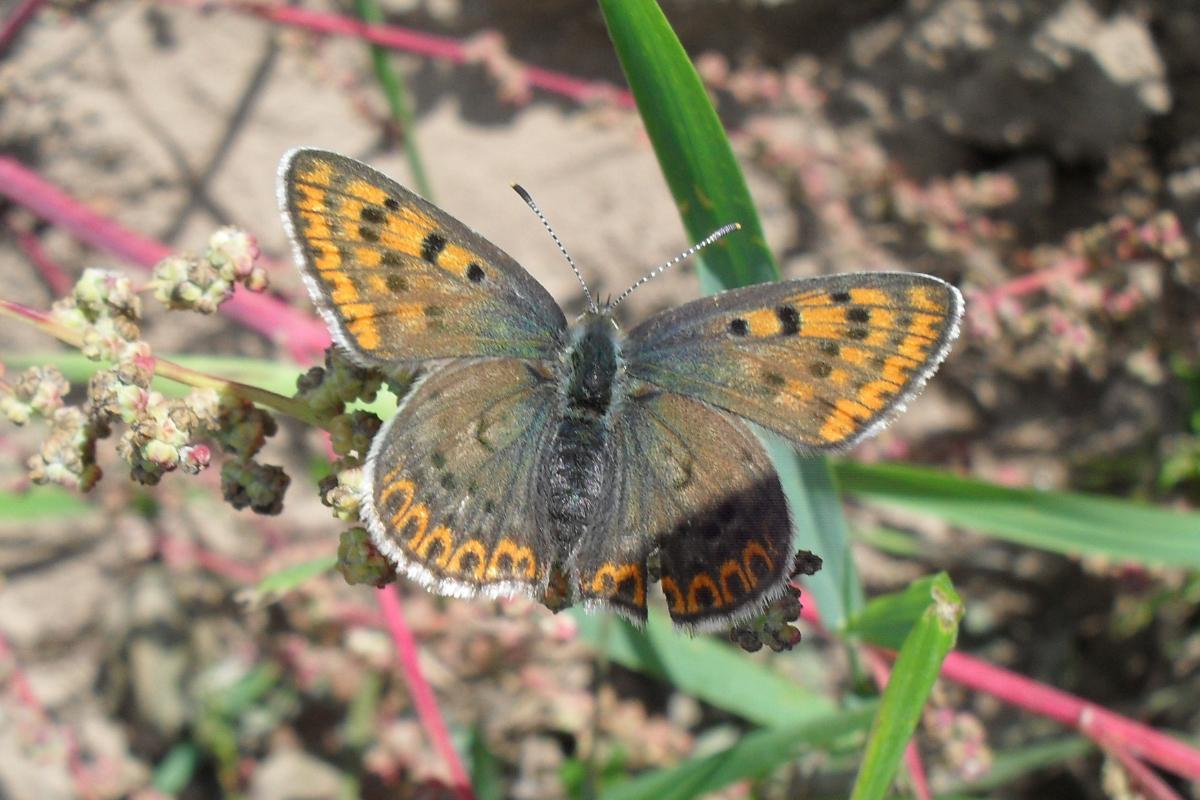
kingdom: Animalia
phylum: Arthropoda
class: Insecta
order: Lepidoptera
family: Lycaenidae
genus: Loweia
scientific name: Loweia tityrus
